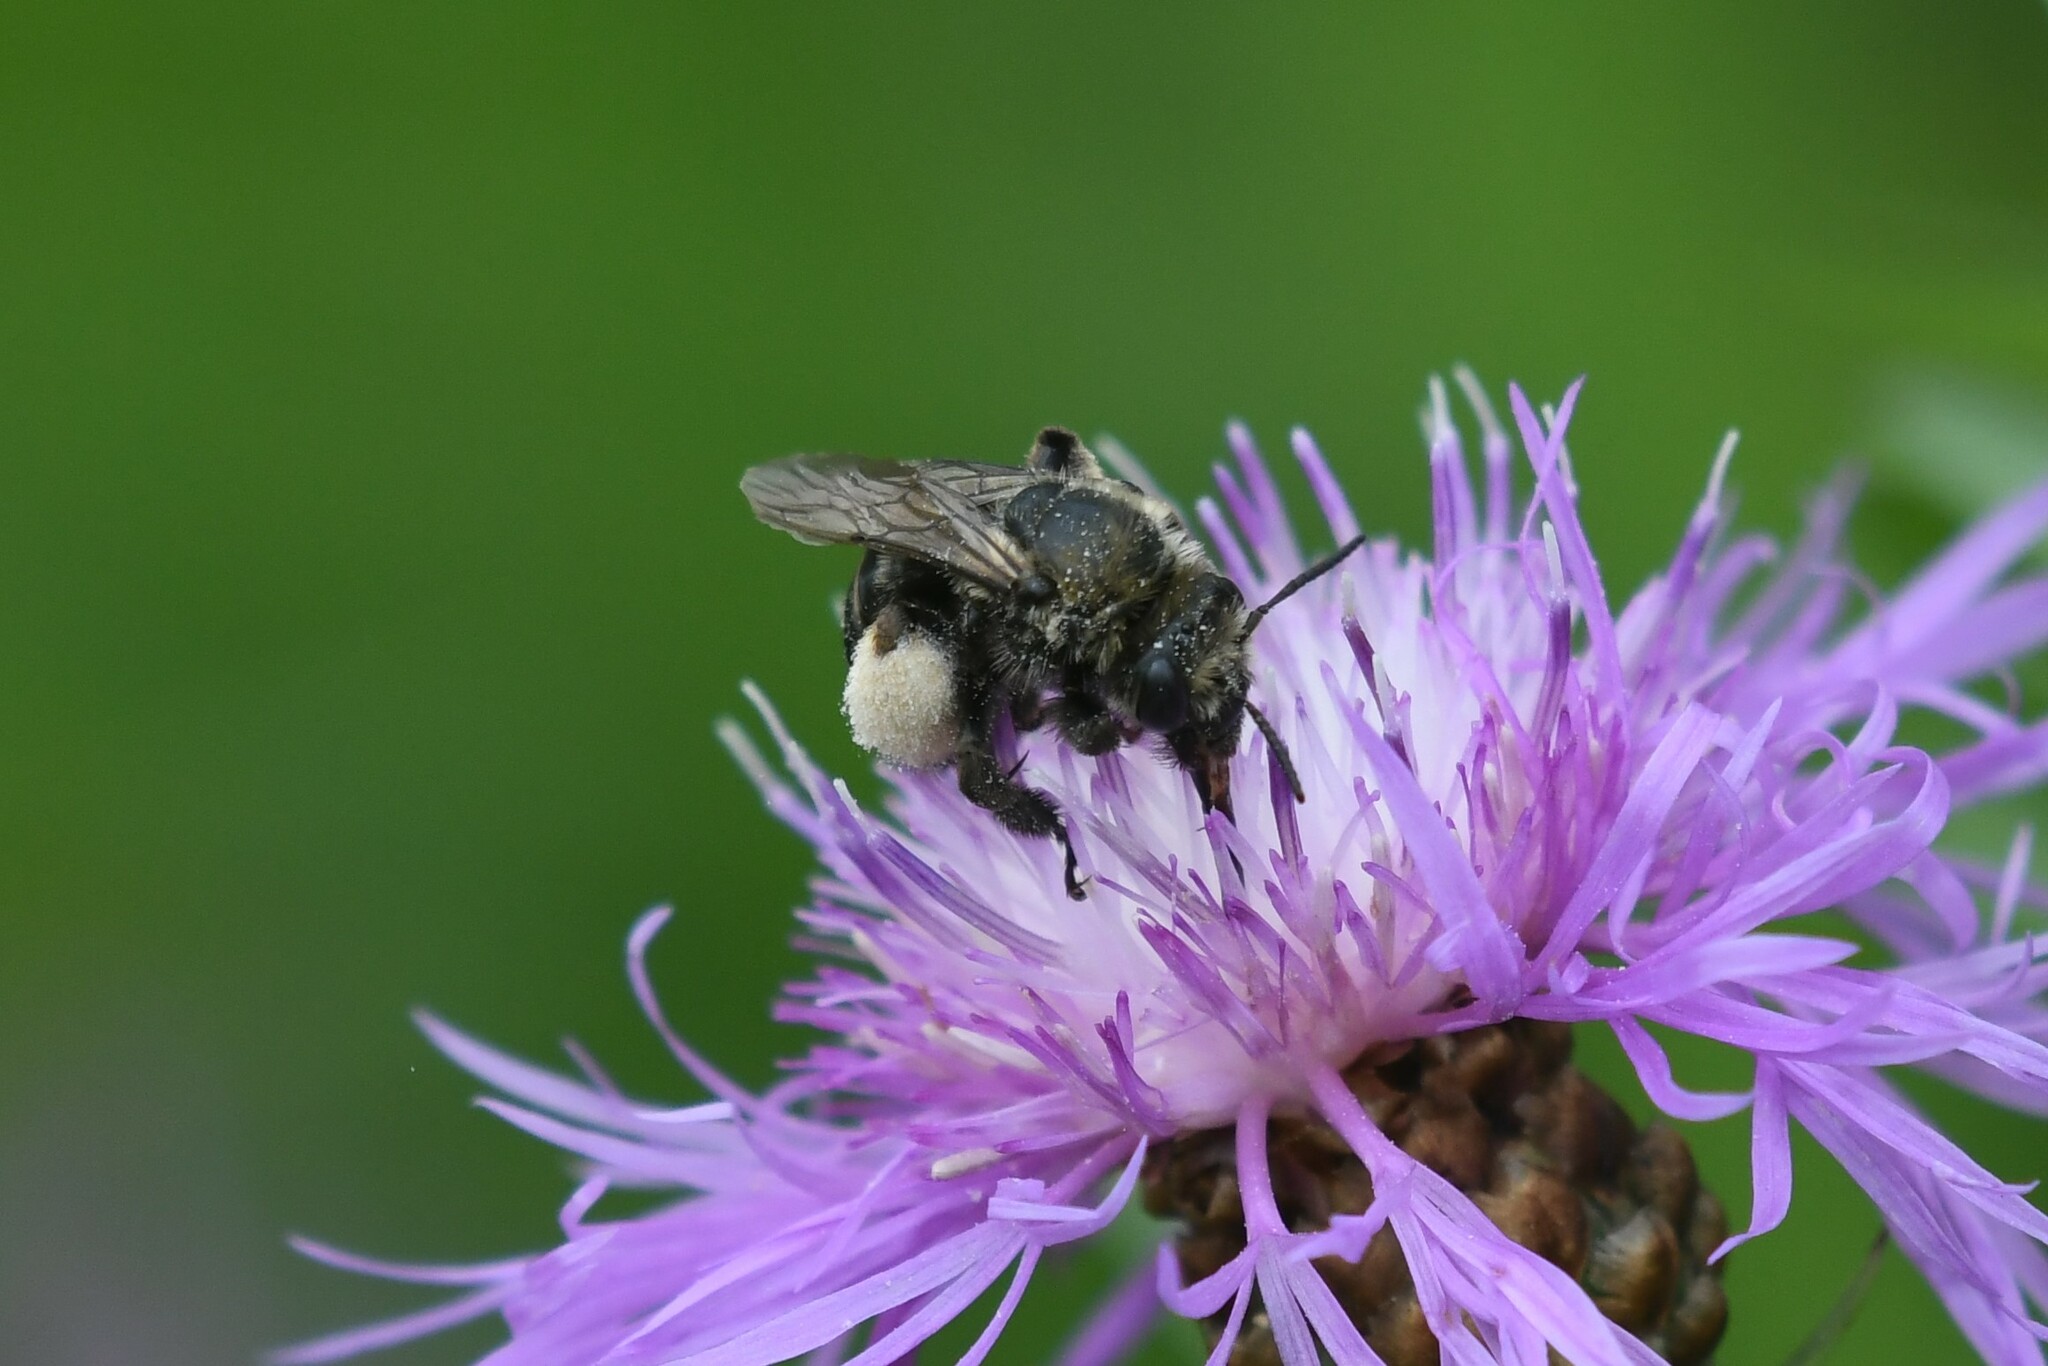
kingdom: Animalia
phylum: Arthropoda
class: Insecta
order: Hymenoptera
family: Apidae
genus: Melissodes
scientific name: Melissodes desponsus
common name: Thistle long-horned bee
